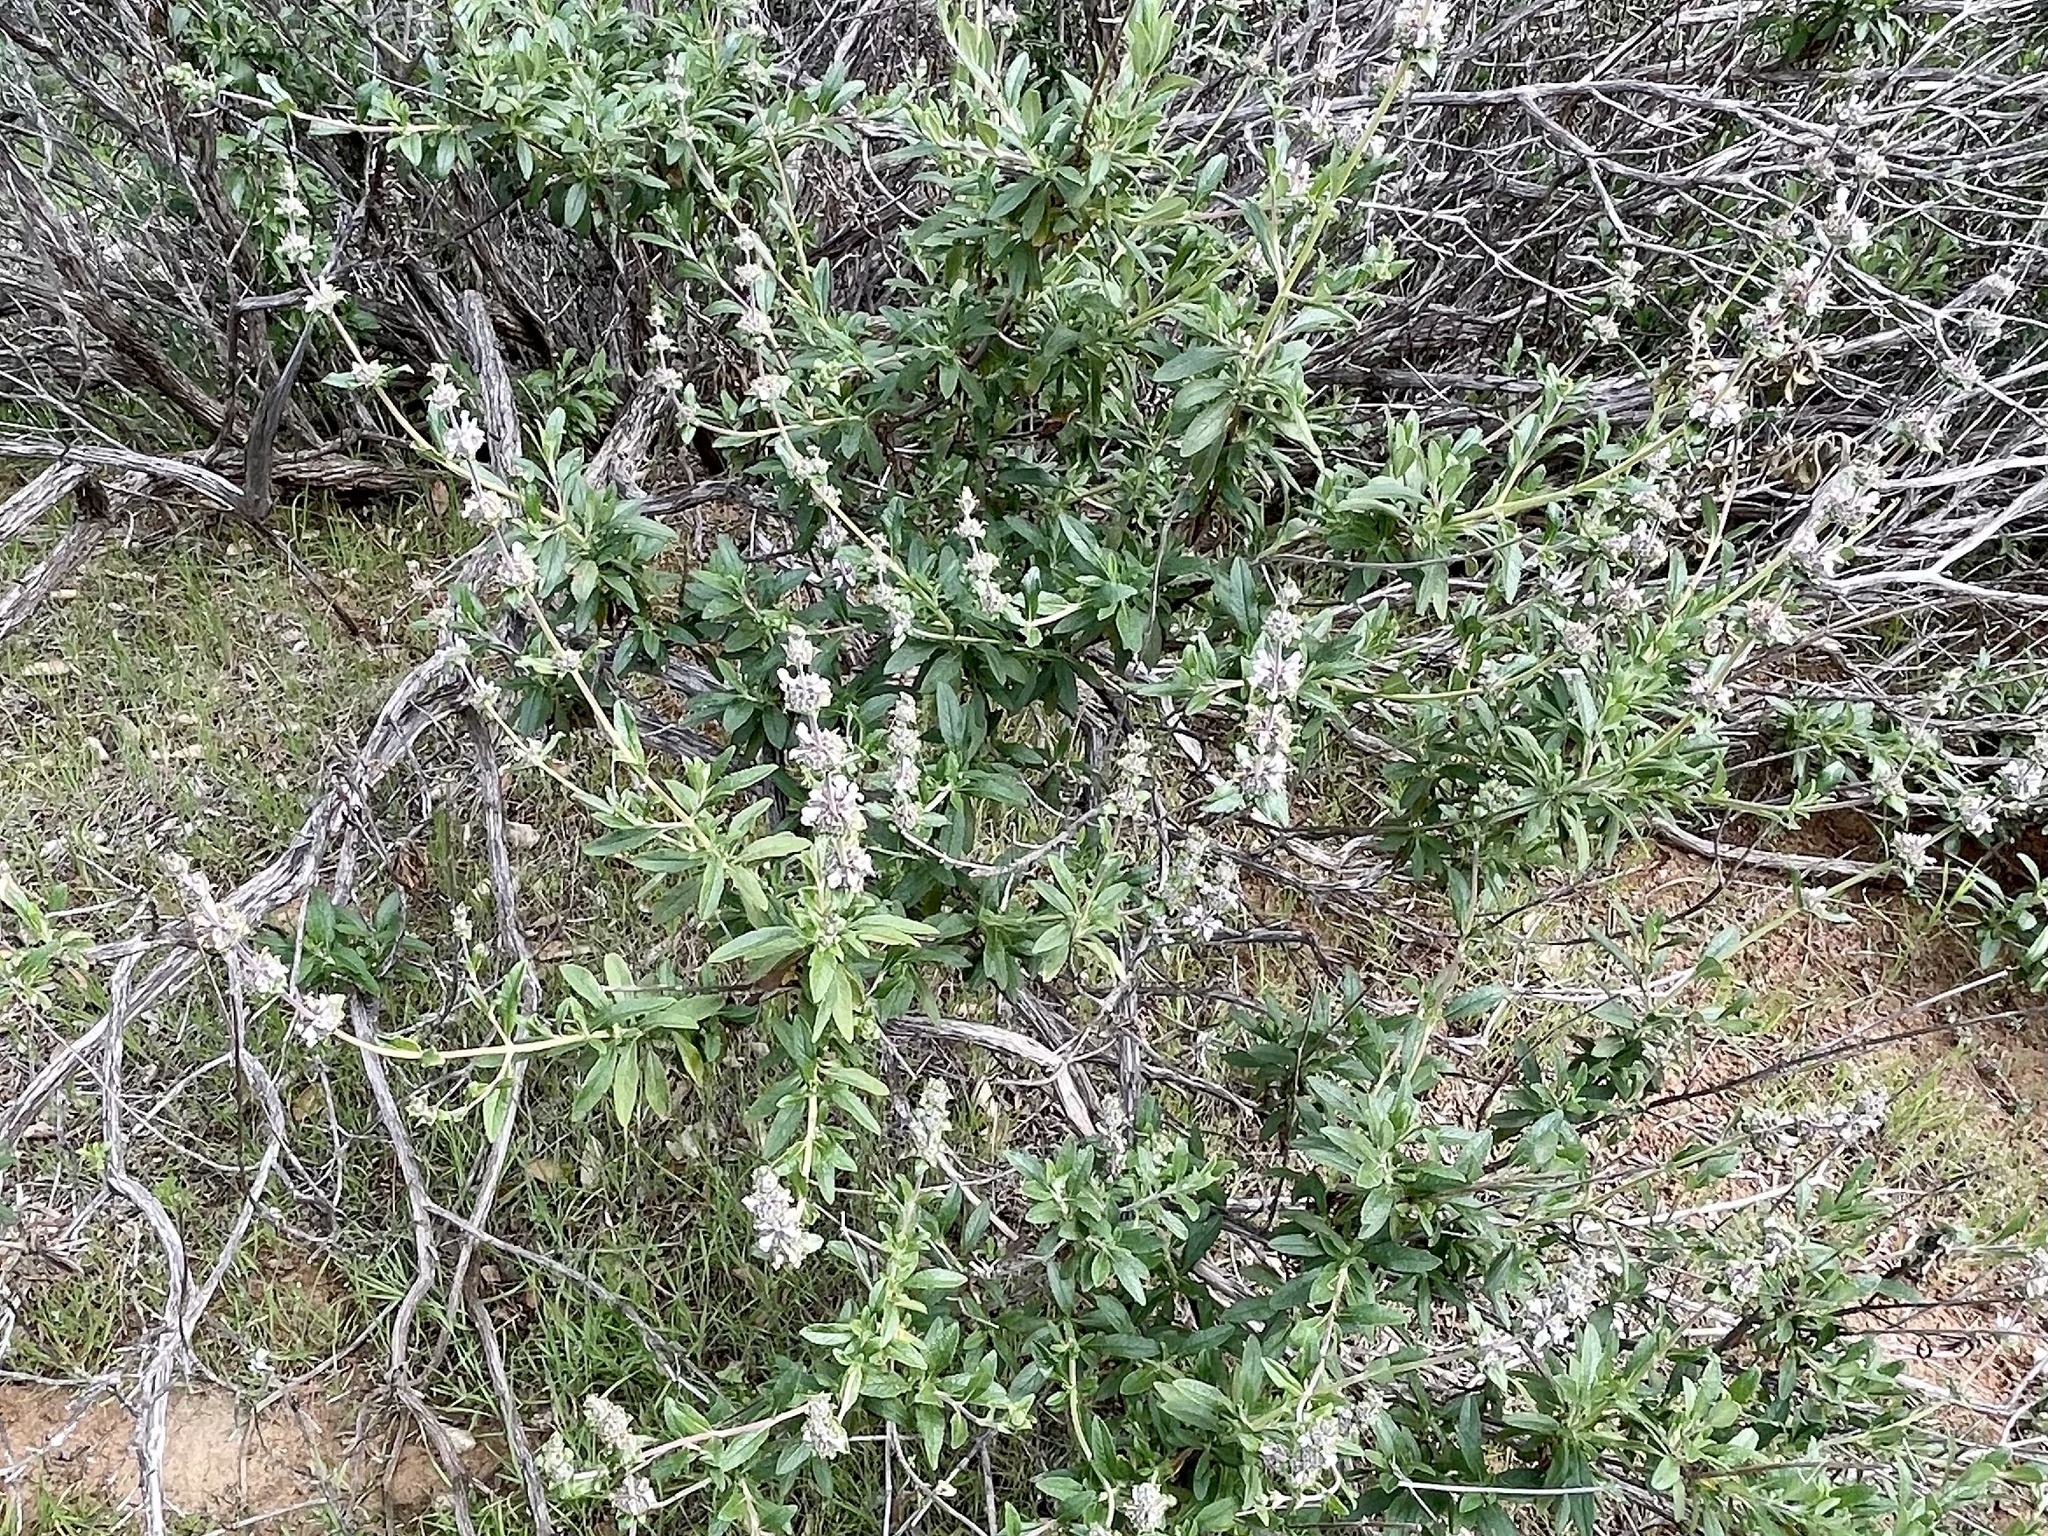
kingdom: Plantae
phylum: Tracheophyta
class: Magnoliopsida
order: Lamiales
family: Lamiaceae
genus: Salvia
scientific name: Salvia mellifera
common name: Black sage
